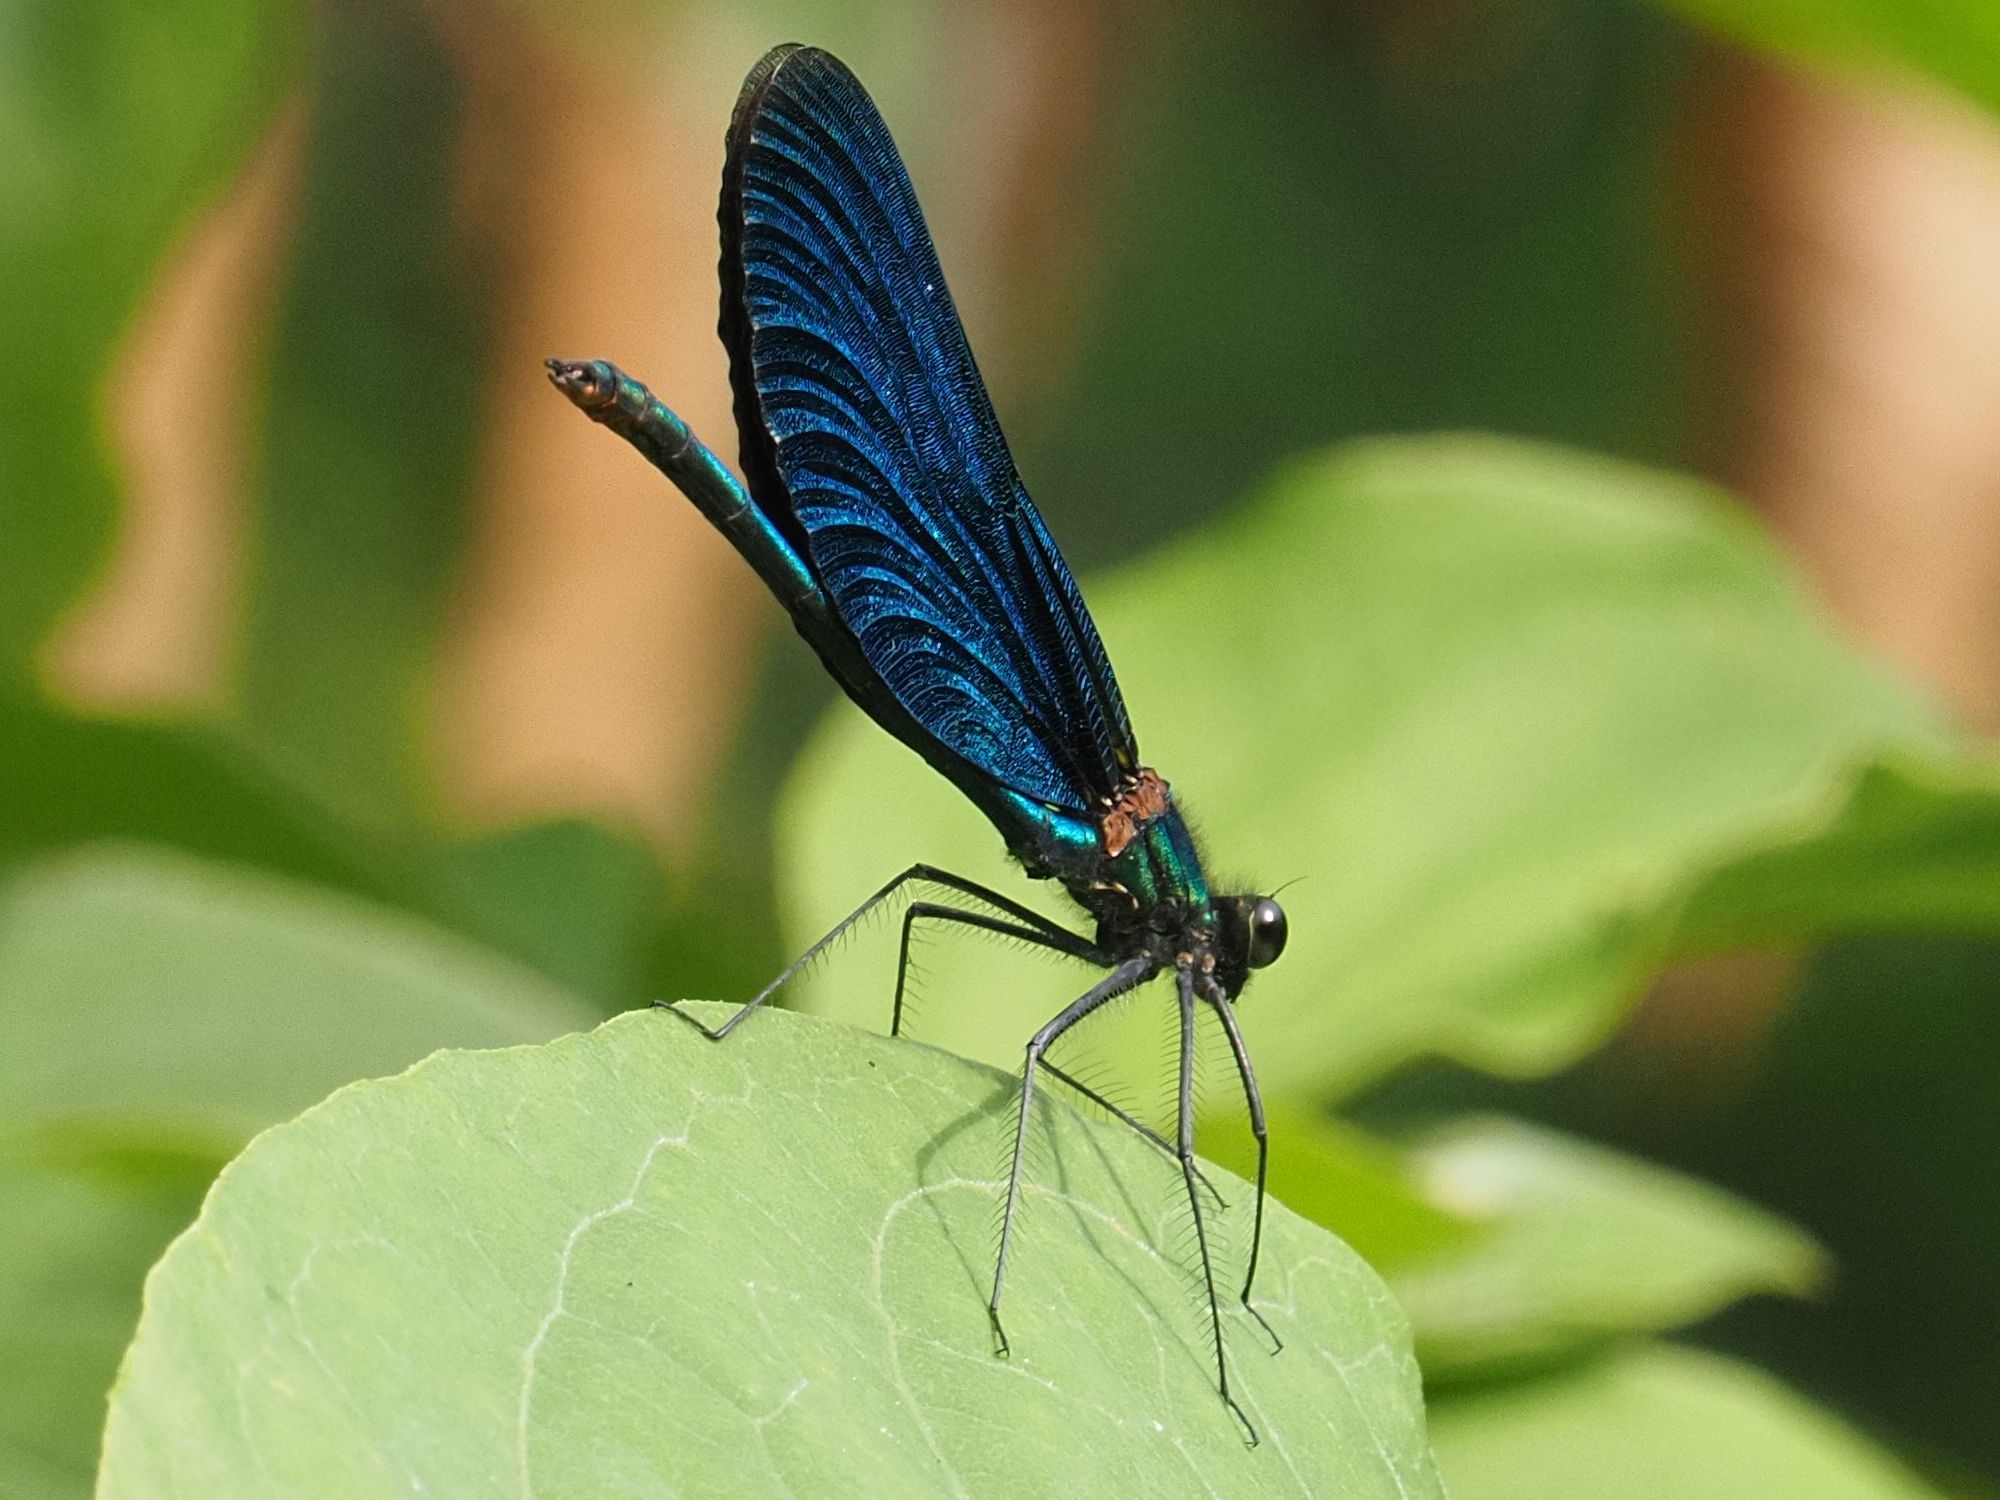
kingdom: Animalia
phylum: Arthropoda
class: Insecta
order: Odonata
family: Calopterygidae
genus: Calopteryx
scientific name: Calopteryx virgo
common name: Beautiful demoiselle
